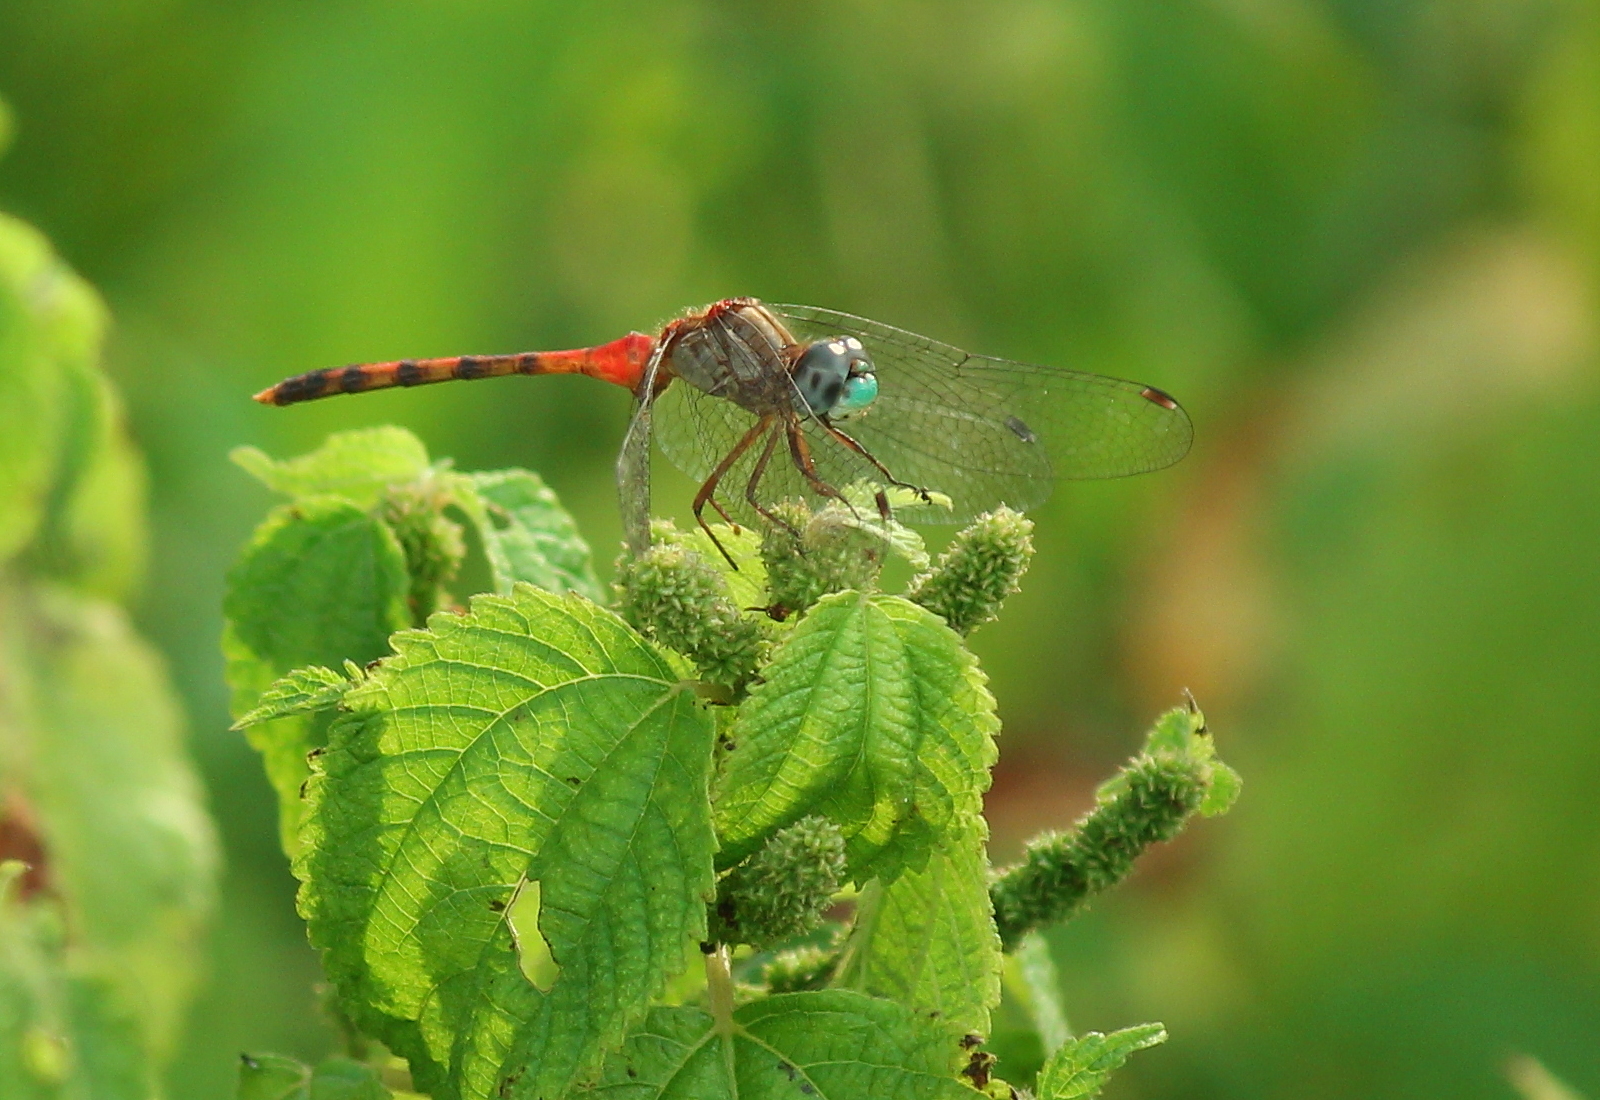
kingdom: Animalia
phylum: Arthropoda
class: Insecta
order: Odonata
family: Libellulidae
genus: Sympetrum
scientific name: Sympetrum ambiguum
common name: Blue-faced meadowhawk
